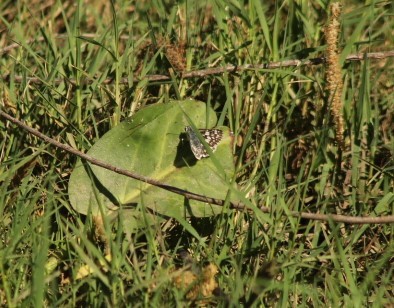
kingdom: Animalia
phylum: Arthropoda
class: Insecta
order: Lepidoptera
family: Hesperiidae
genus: Burnsius
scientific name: Burnsius albezens
